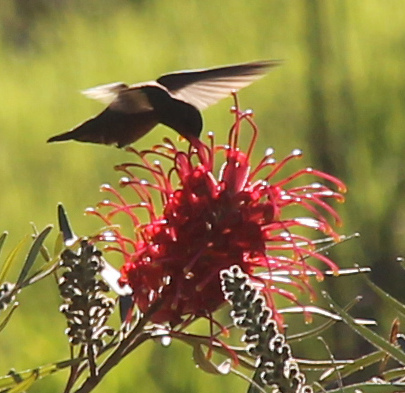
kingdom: Animalia
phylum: Chordata
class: Aves
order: Apodiformes
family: Trochilidae
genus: Hylocharis
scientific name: Hylocharis chrysura
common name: Gilded sapphire
